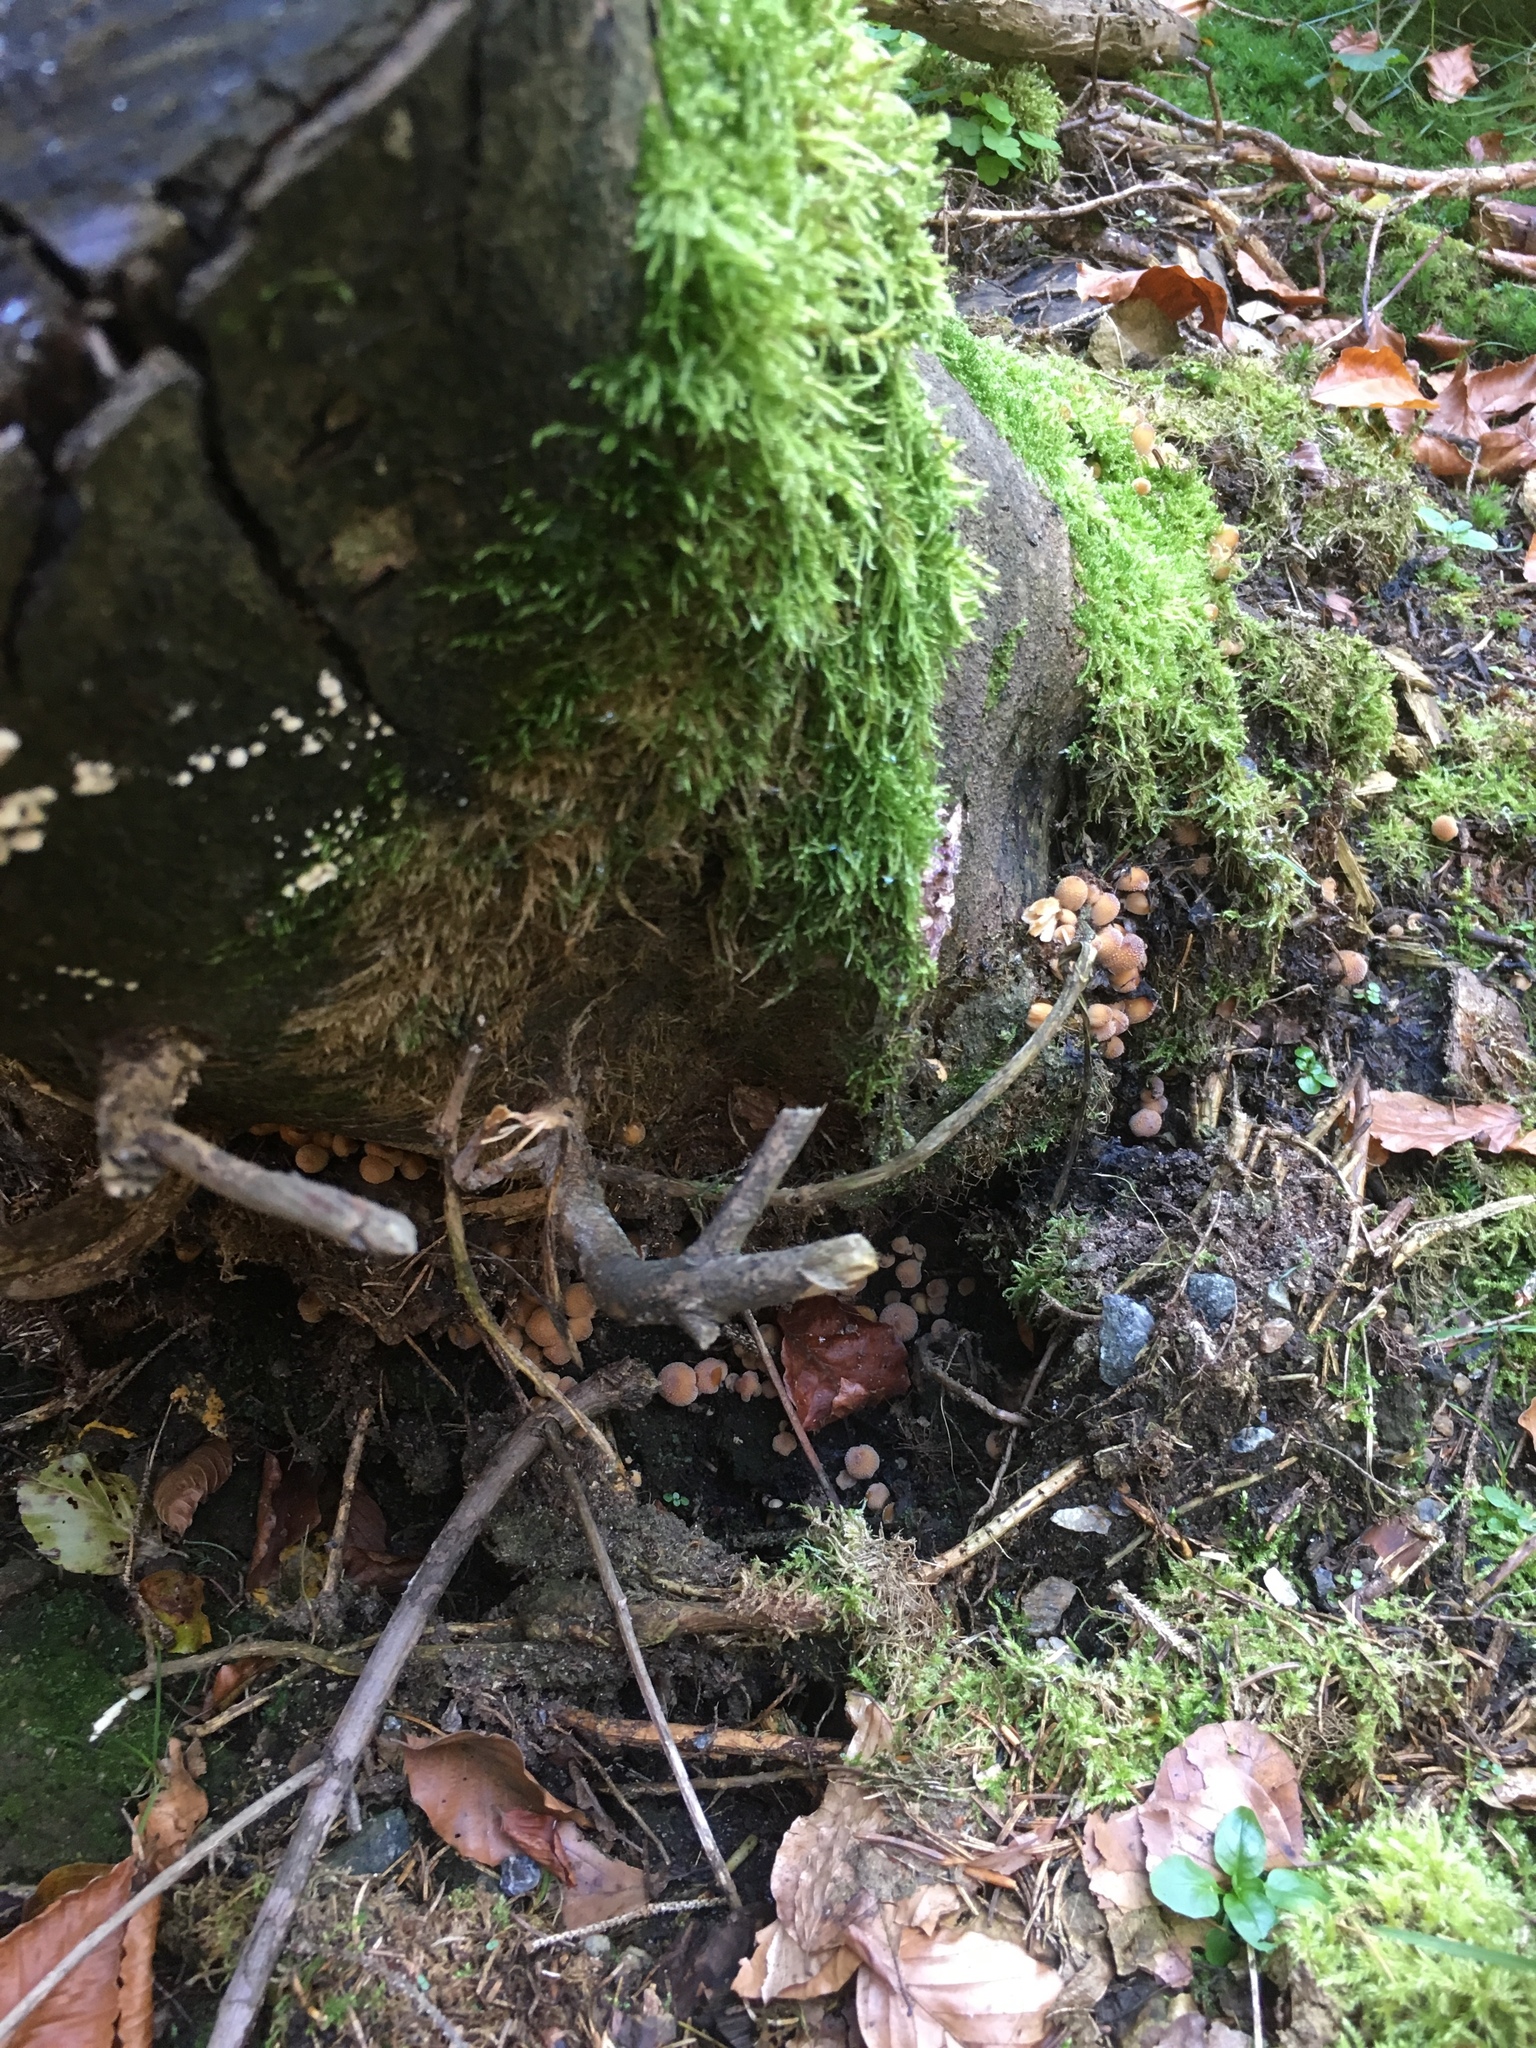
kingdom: Fungi
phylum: Basidiomycota
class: Agaricomycetes
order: Agaricales
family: Psathyrellaceae
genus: Coprinellus
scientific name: Coprinellus micaceus
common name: Glistening ink-cap
